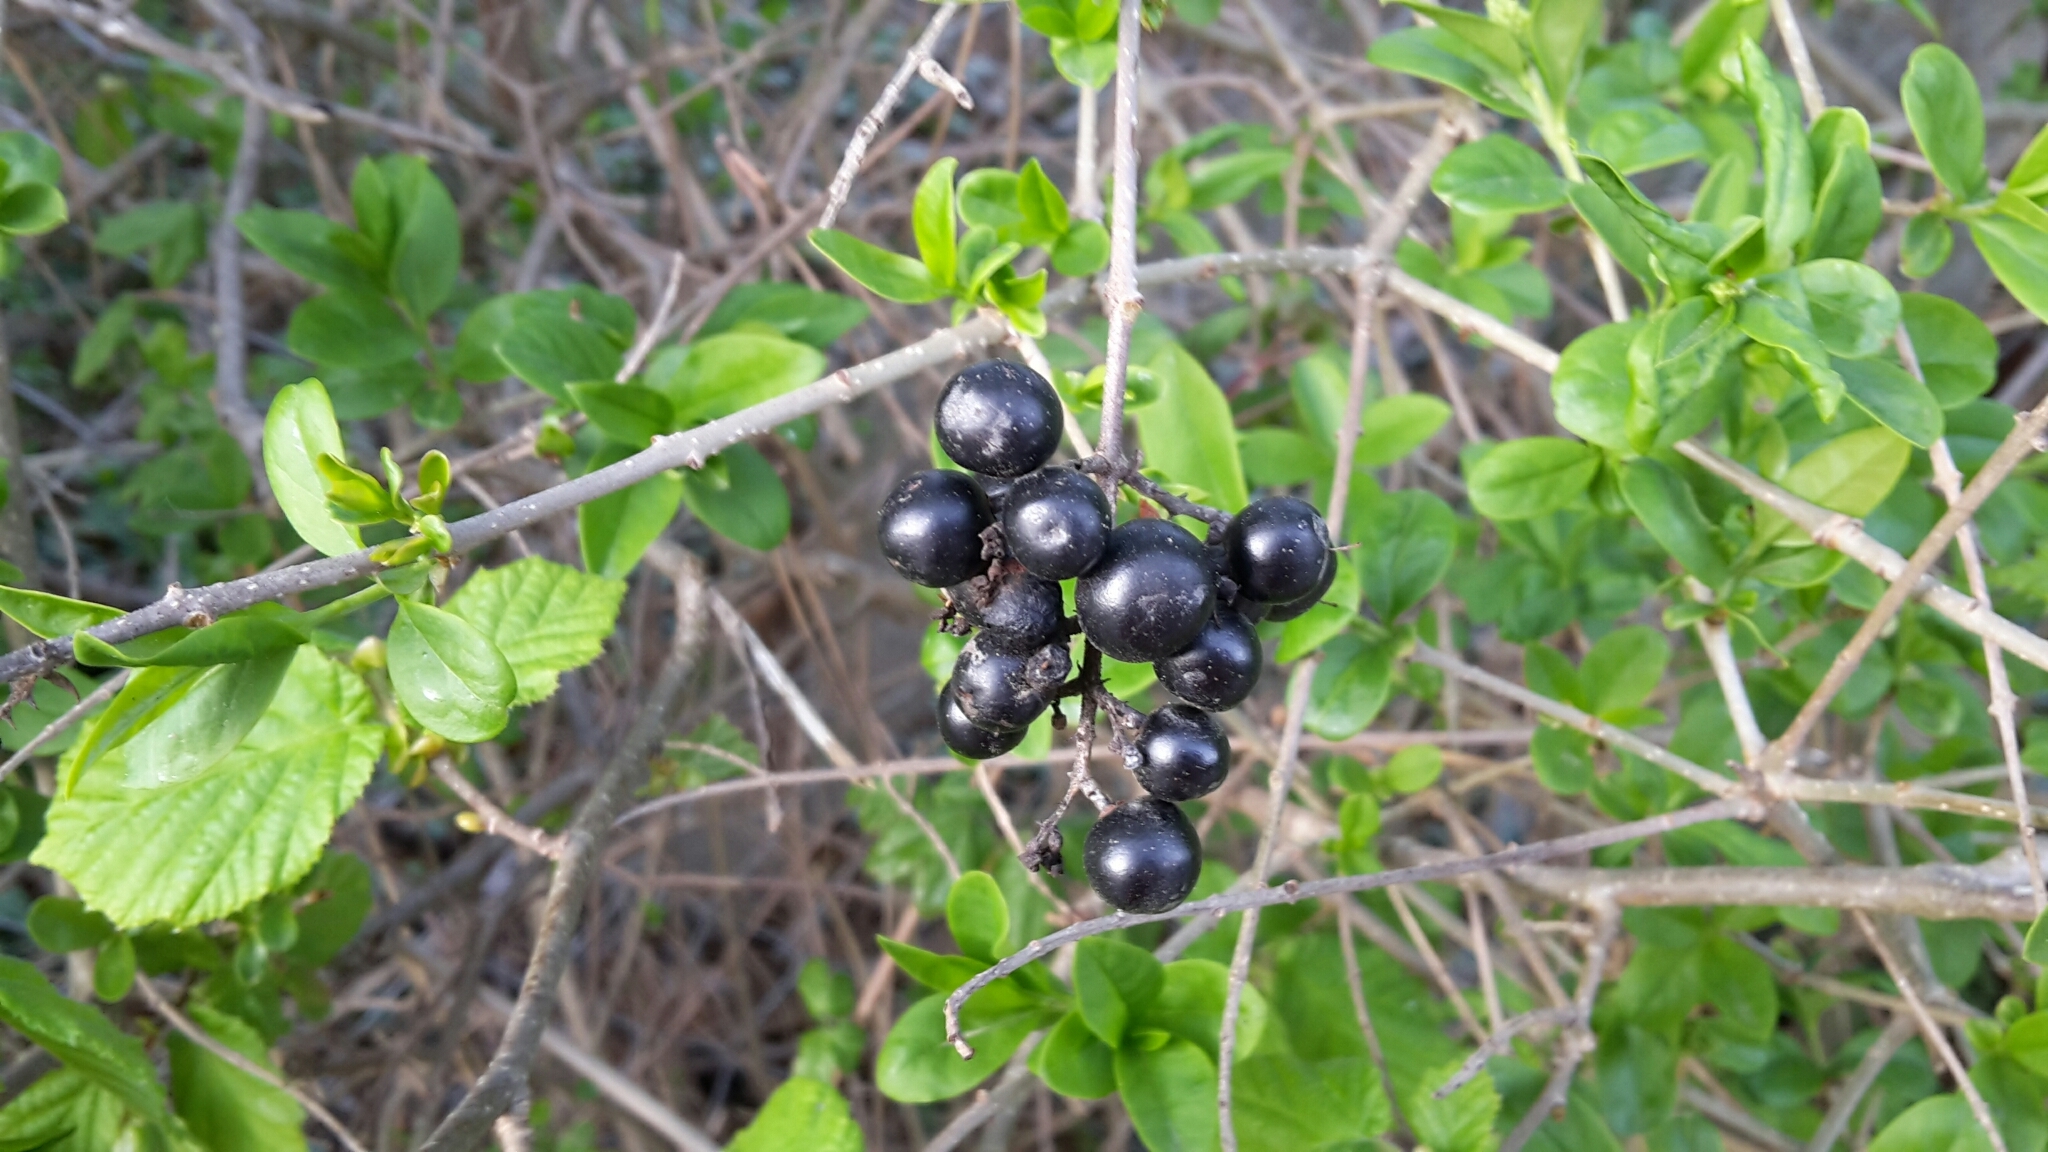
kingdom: Plantae
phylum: Tracheophyta
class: Magnoliopsida
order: Lamiales
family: Oleaceae
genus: Ligustrum
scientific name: Ligustrum vulgare
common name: Wild privet
